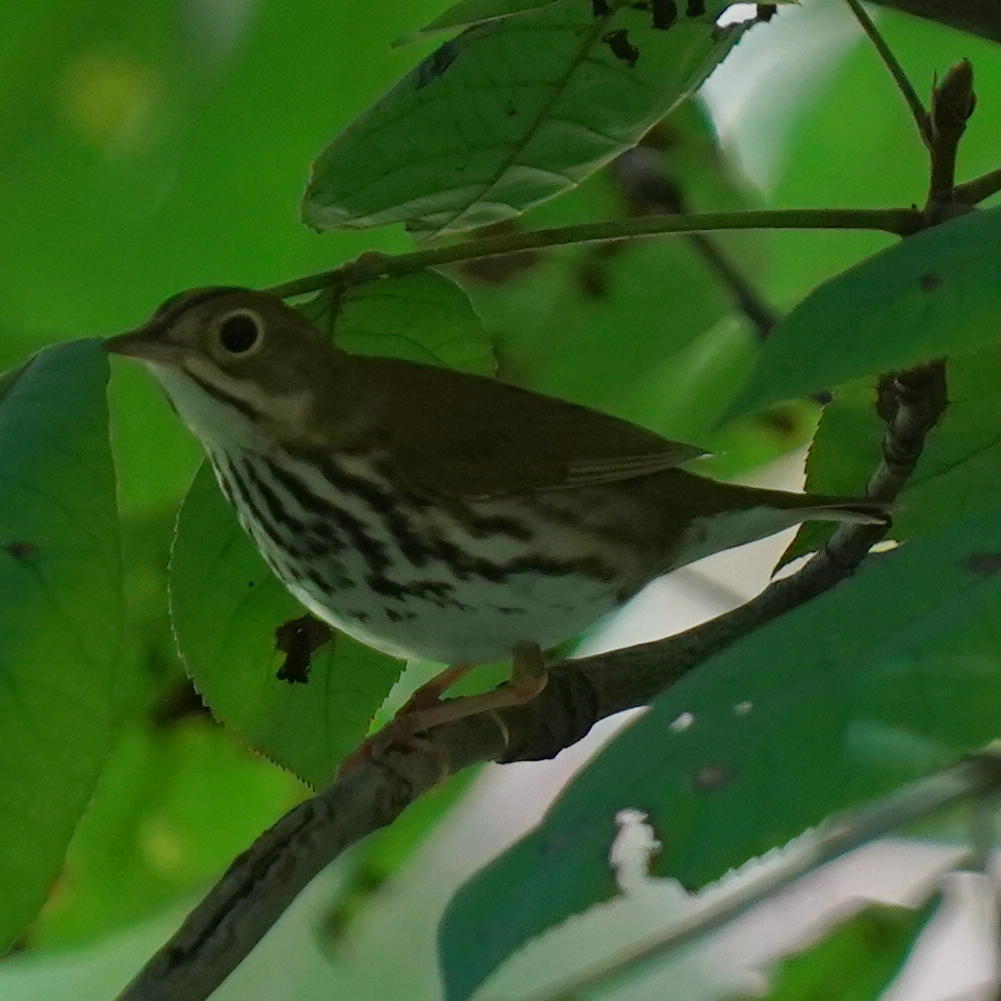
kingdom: Animalia
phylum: Chordata
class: Aves
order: Passeriformes
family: Parulidae
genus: Seiurus
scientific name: Seiurus aurocapilla
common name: Ovenbird
